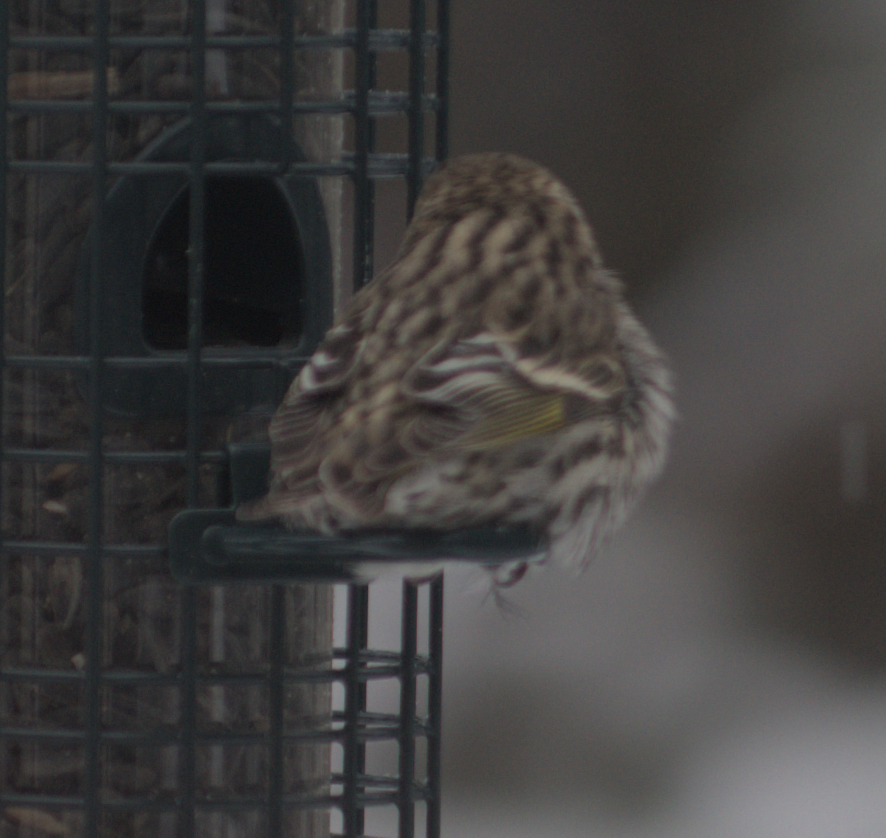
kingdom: Animalia
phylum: Chordata
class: Aves
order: Passeriformes
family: Fringillidae
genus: Spinus
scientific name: Spinus pinus
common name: Pine siskin
